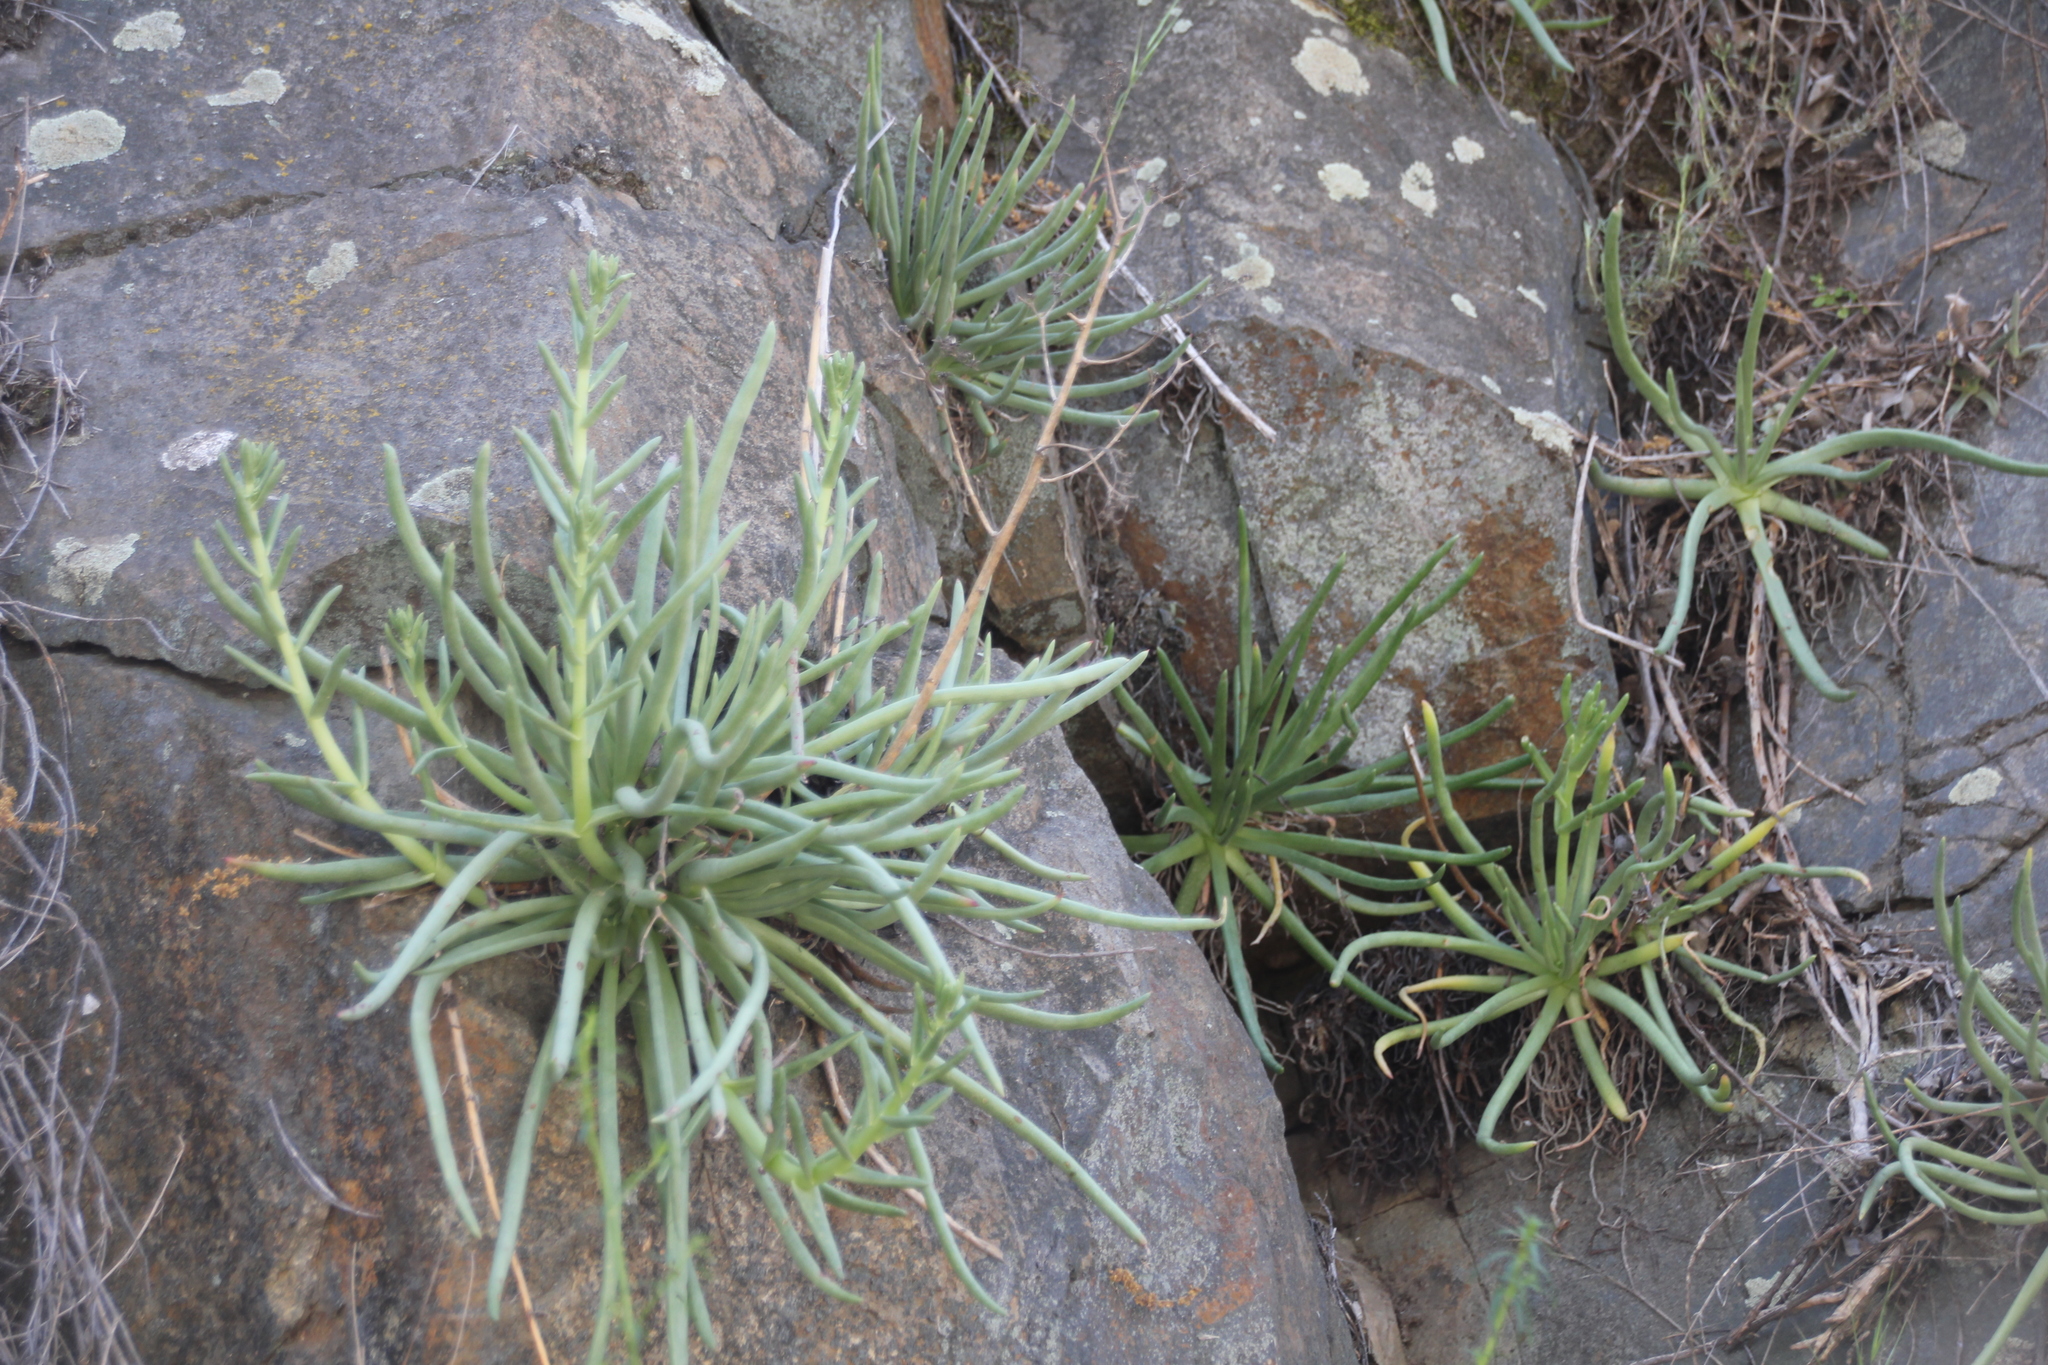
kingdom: Plantae
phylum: Tracheophyta
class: Magnoliopsida
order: Saxifragales
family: Crassulaceae
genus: Dudleya
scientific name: Dudleya edulis
